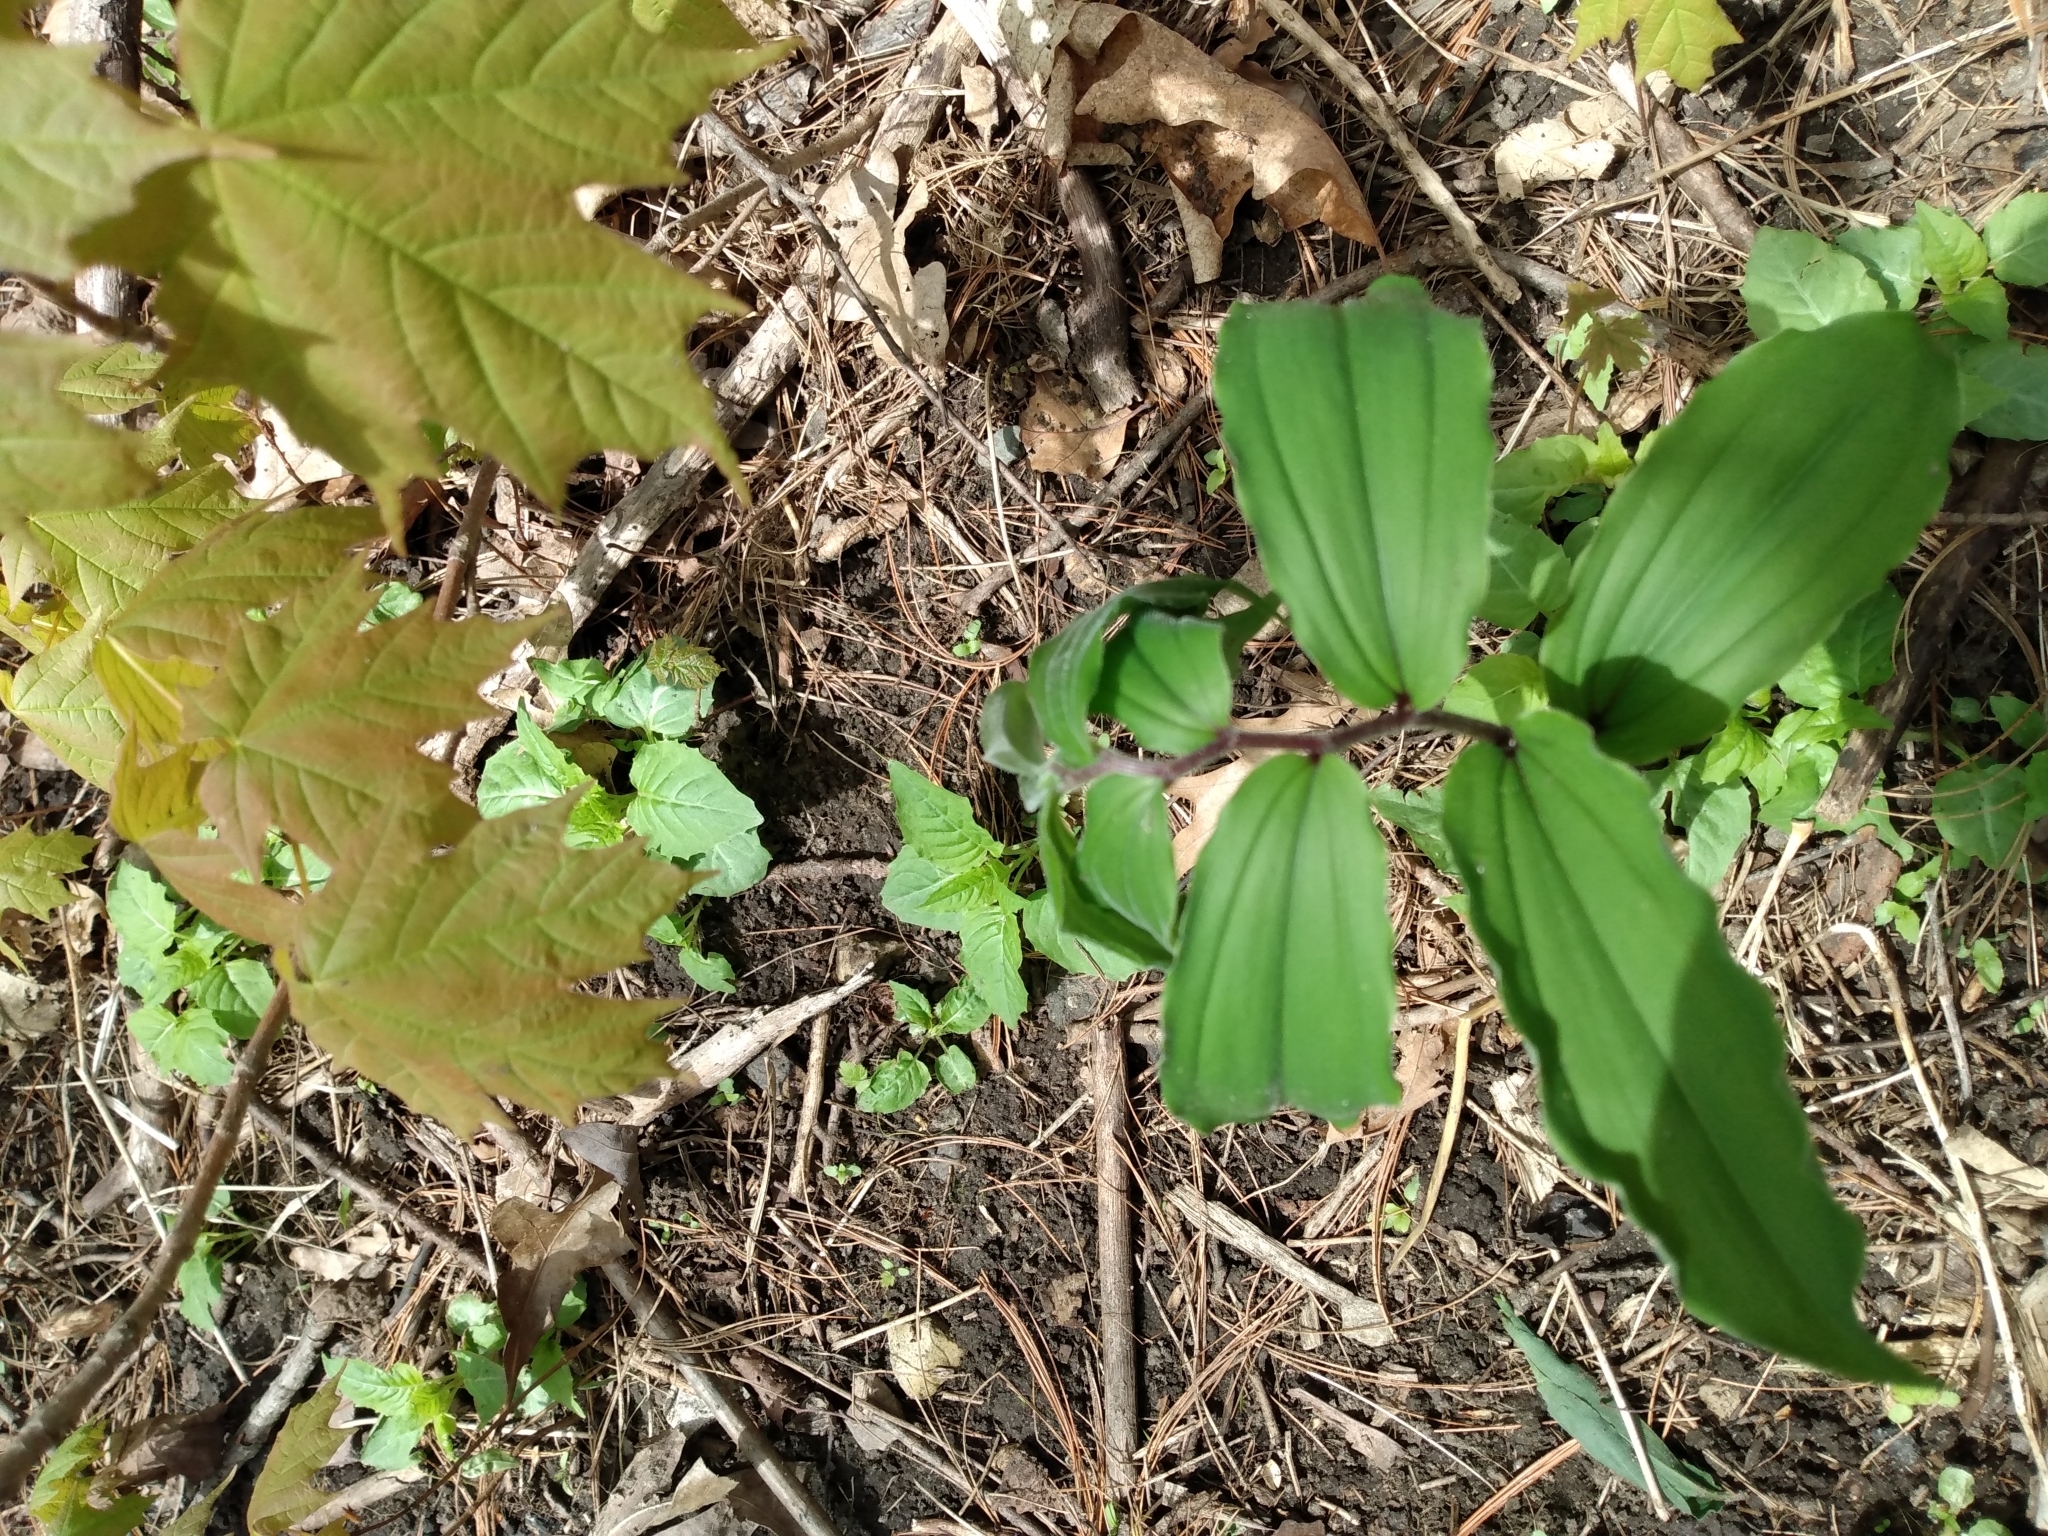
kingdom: Plantae
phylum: Tracheophyta
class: Liliopsida
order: Asparagales
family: Asparagaceae
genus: Maianthemum
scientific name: Maianthemum racemosum
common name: False spikenard
